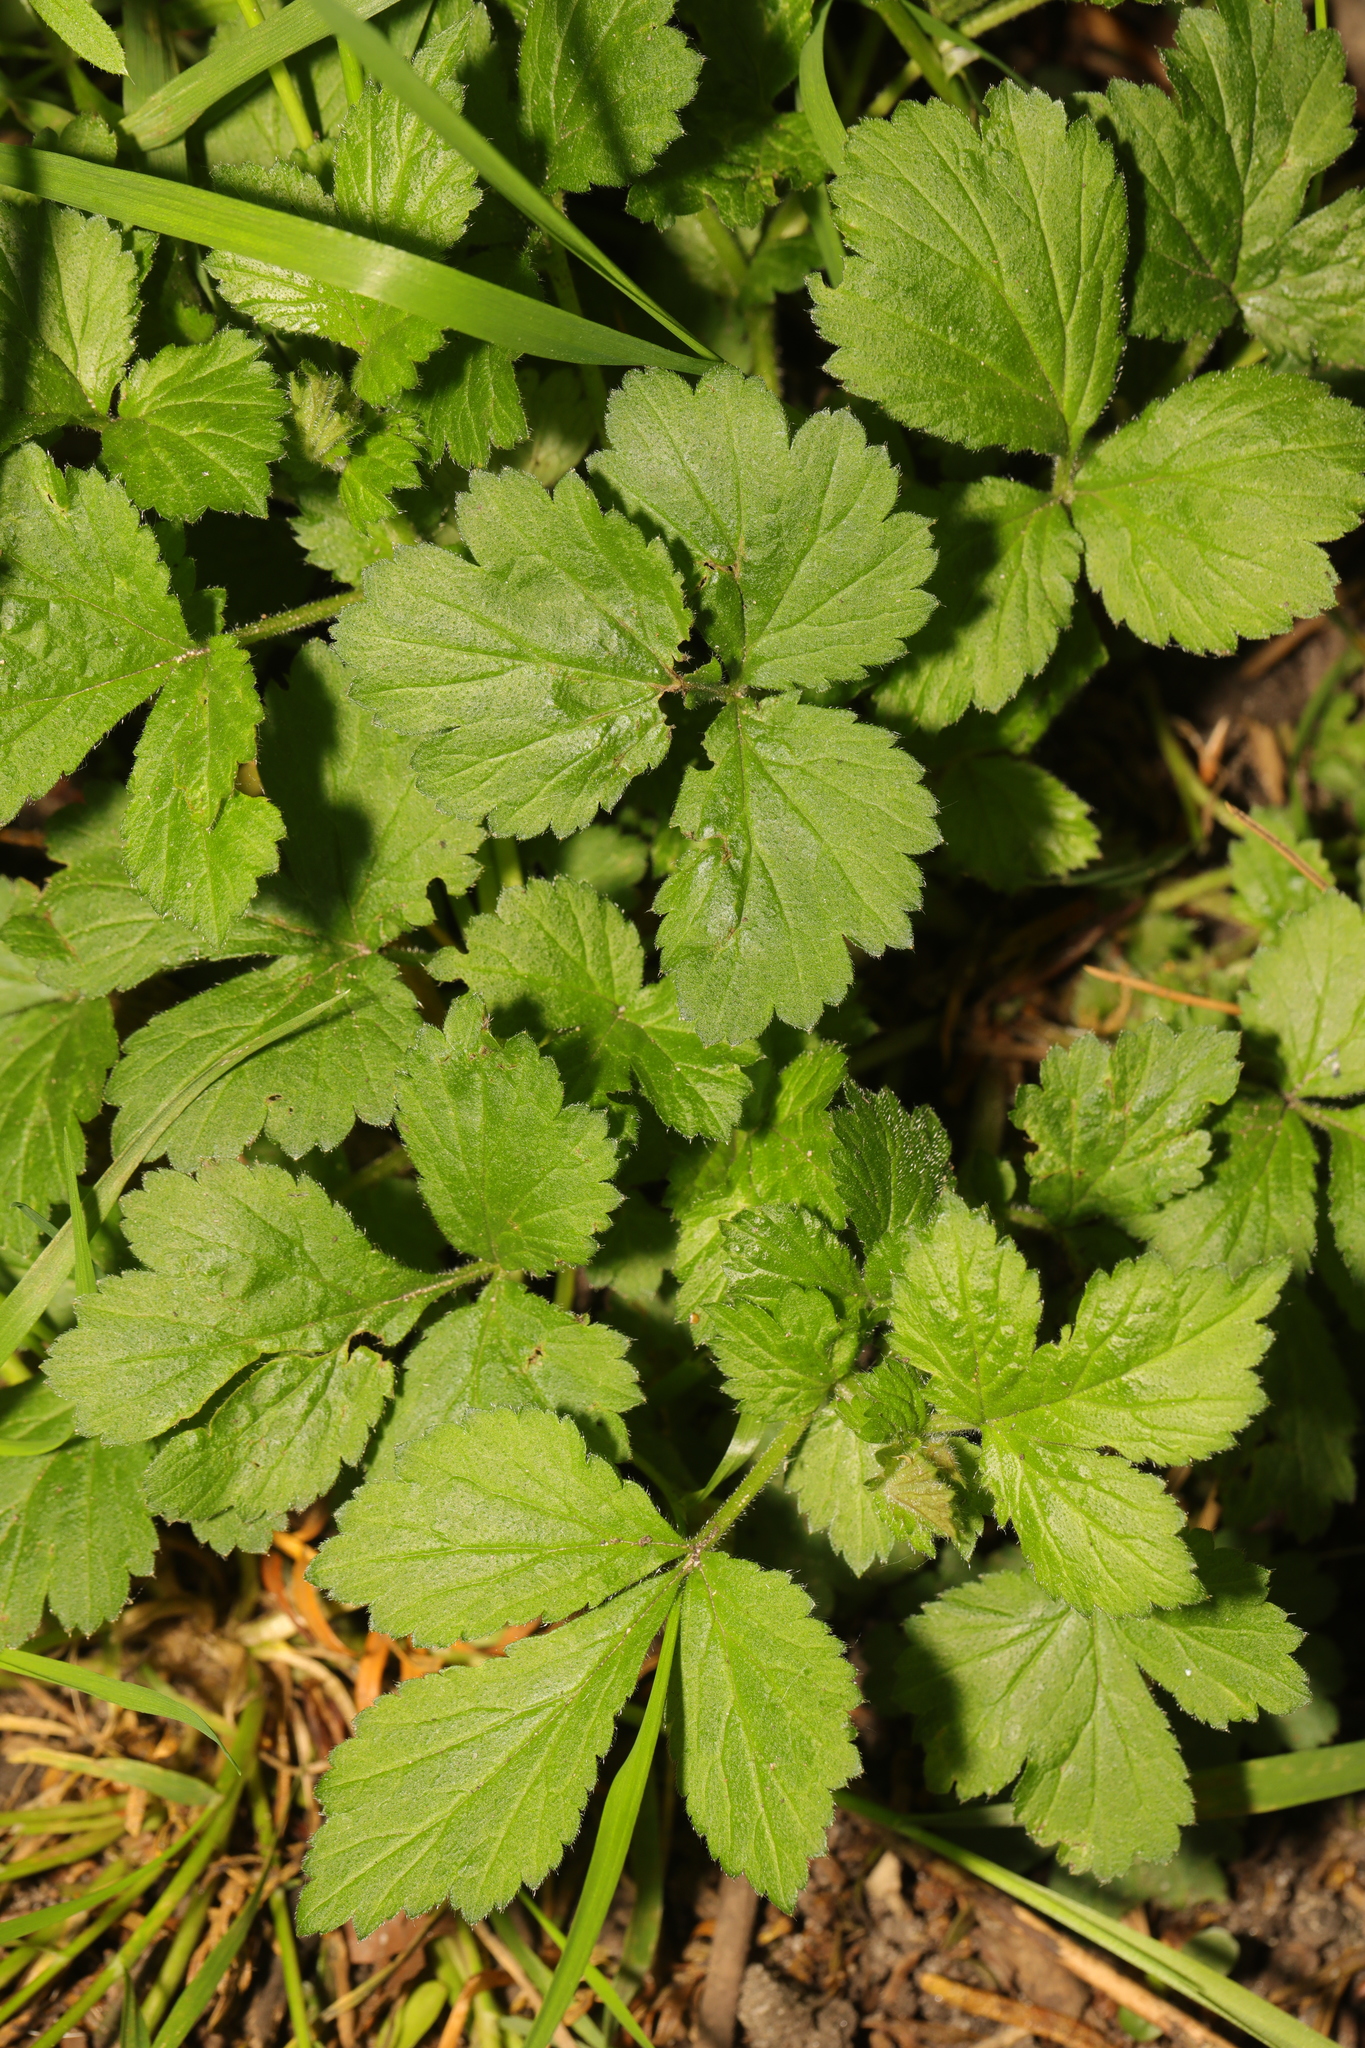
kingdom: Plantae
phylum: Tracheophyta
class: Magnoliopsida
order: Rosales
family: Rosaceae
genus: Geum
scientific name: Geum urbanum
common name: Wood avens
